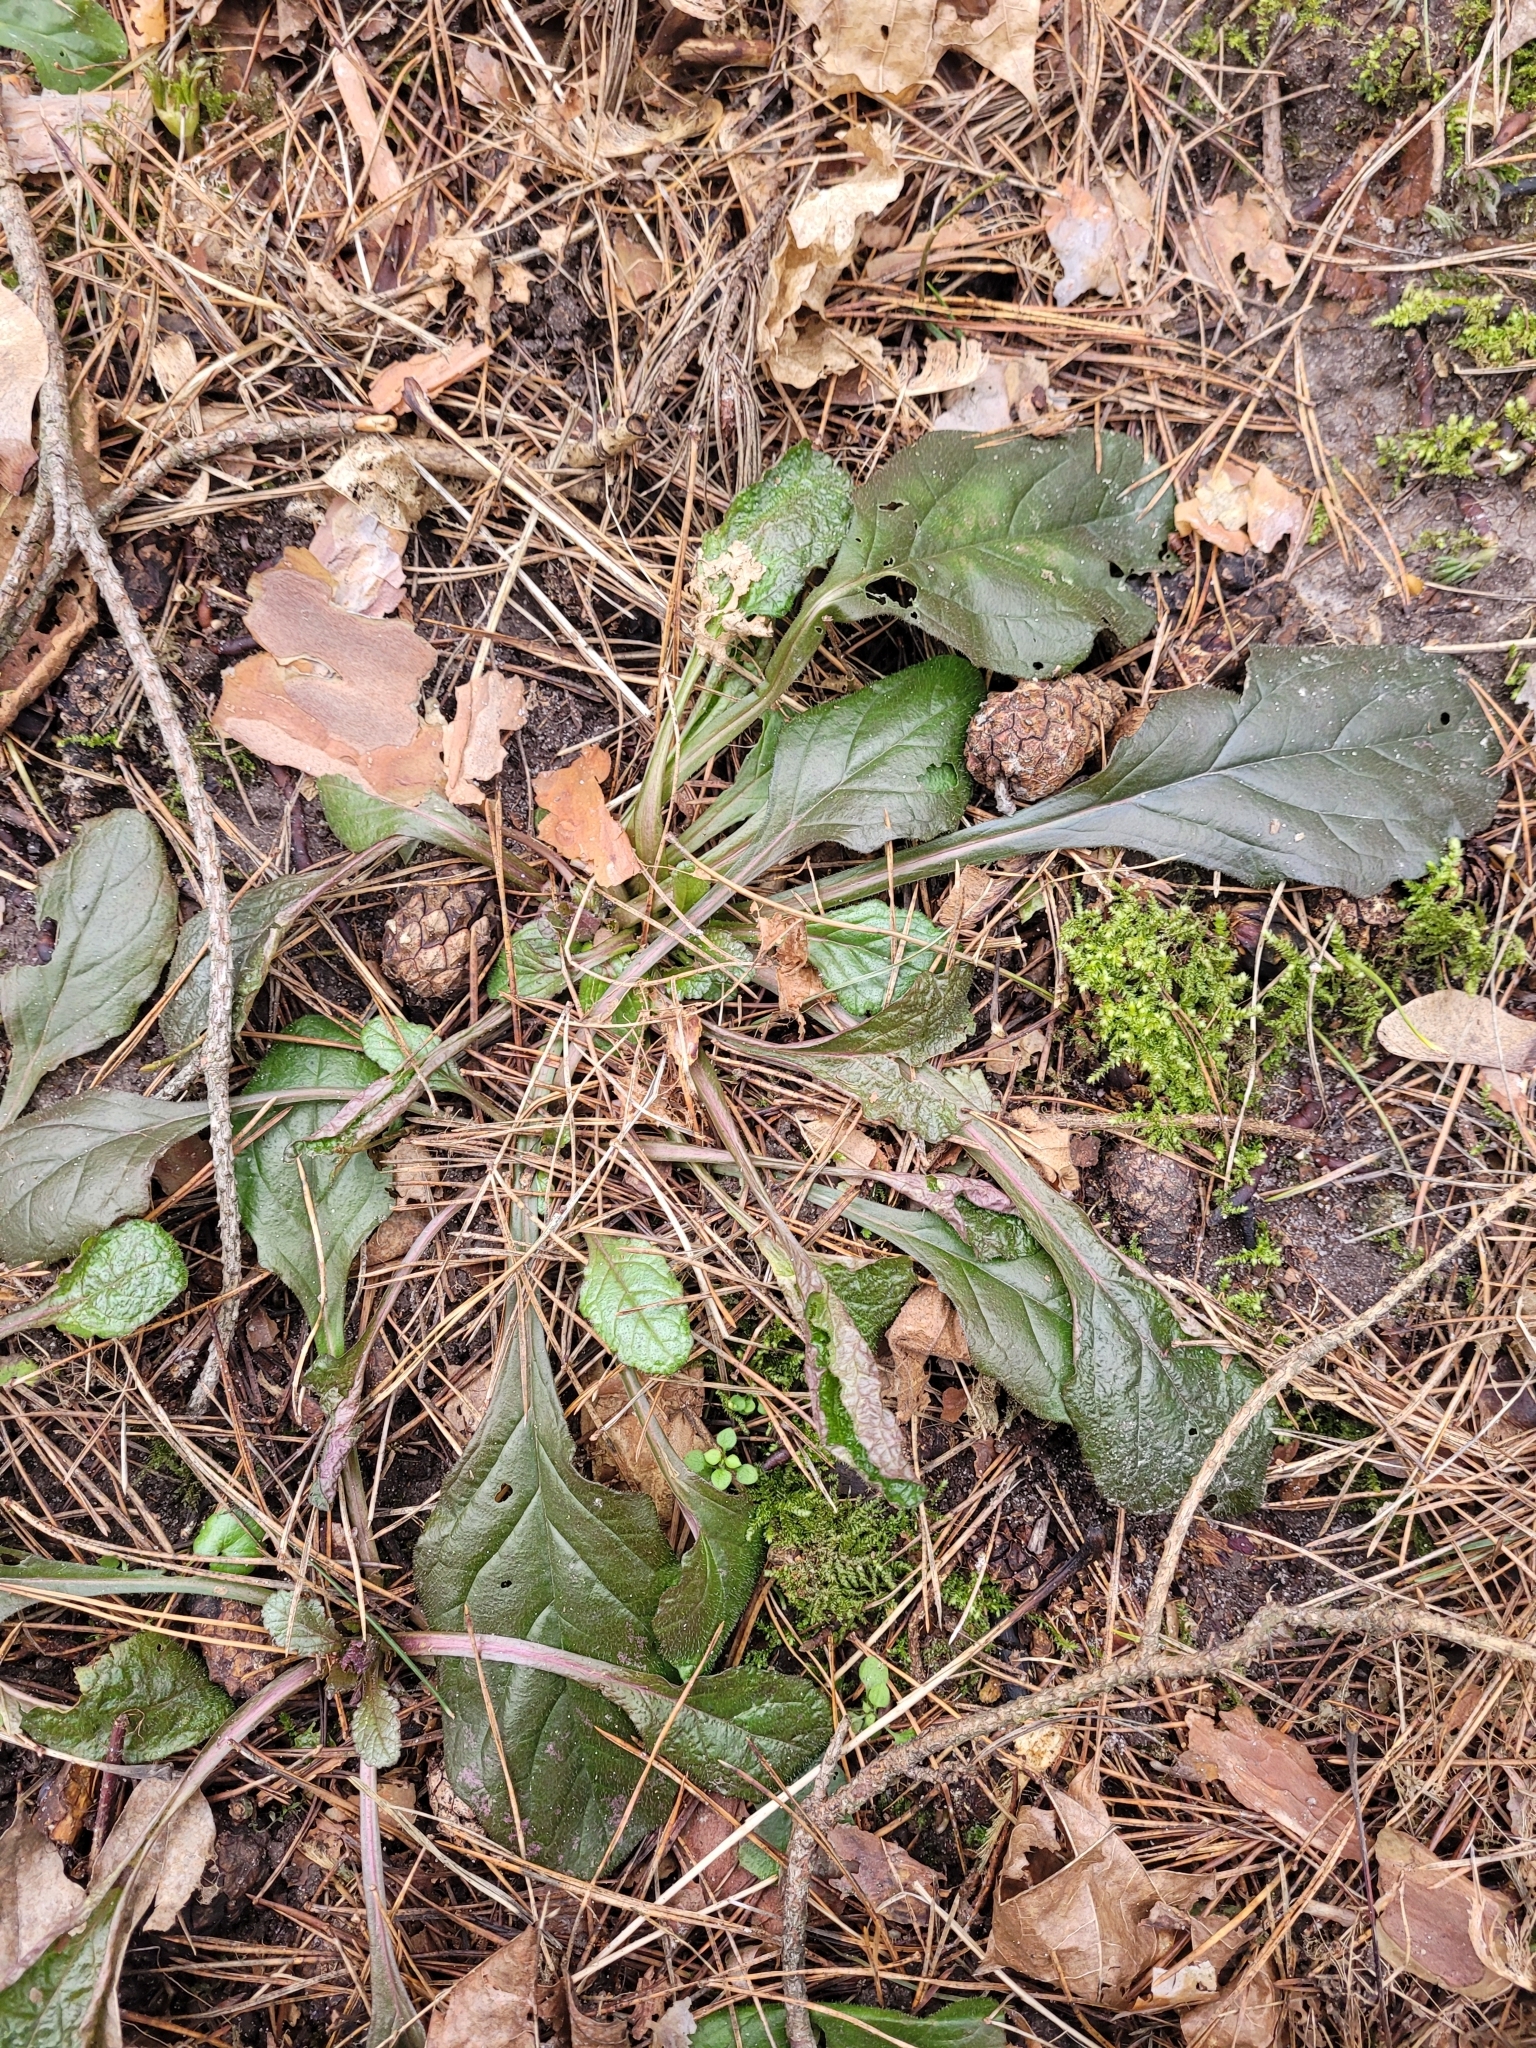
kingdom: Plantae
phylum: Tracheophyta
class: Magnoliopsida
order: Lamiales
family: Lamiaceae
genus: Ajuga
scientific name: Ajuga reptans
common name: Bugle
